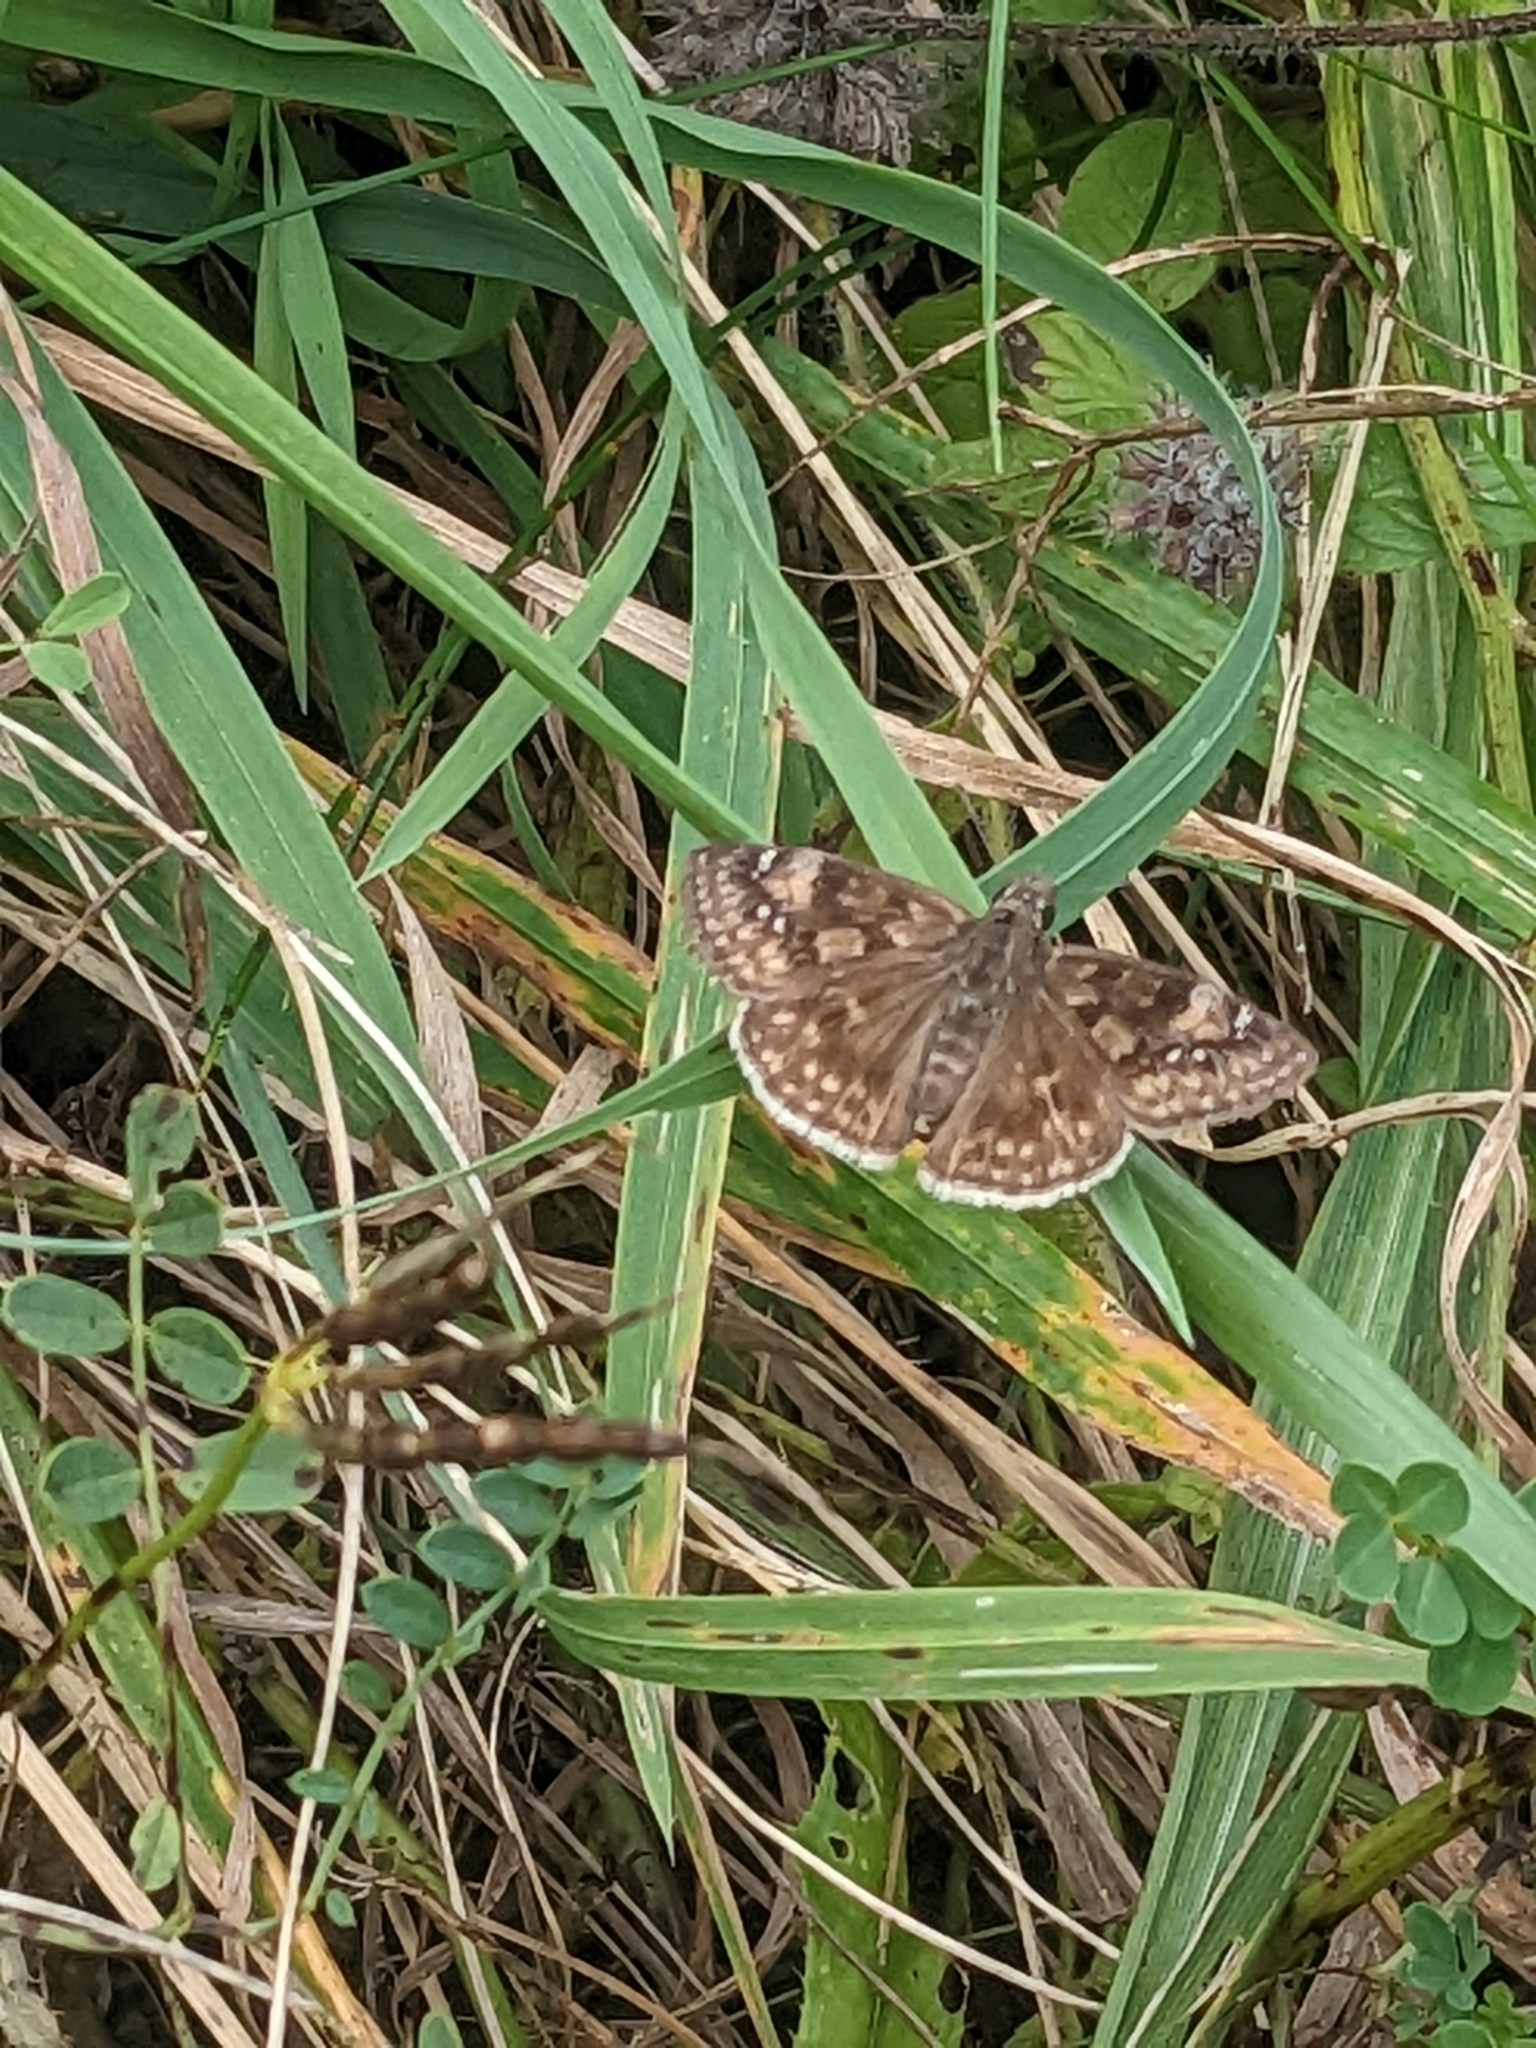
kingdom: Animalia
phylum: Arthropoda
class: Insecta
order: Lepidoptera
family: Hesperiidae
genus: Erynnis
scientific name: Erynnis baptisiae
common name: Wild indigo duskywing
